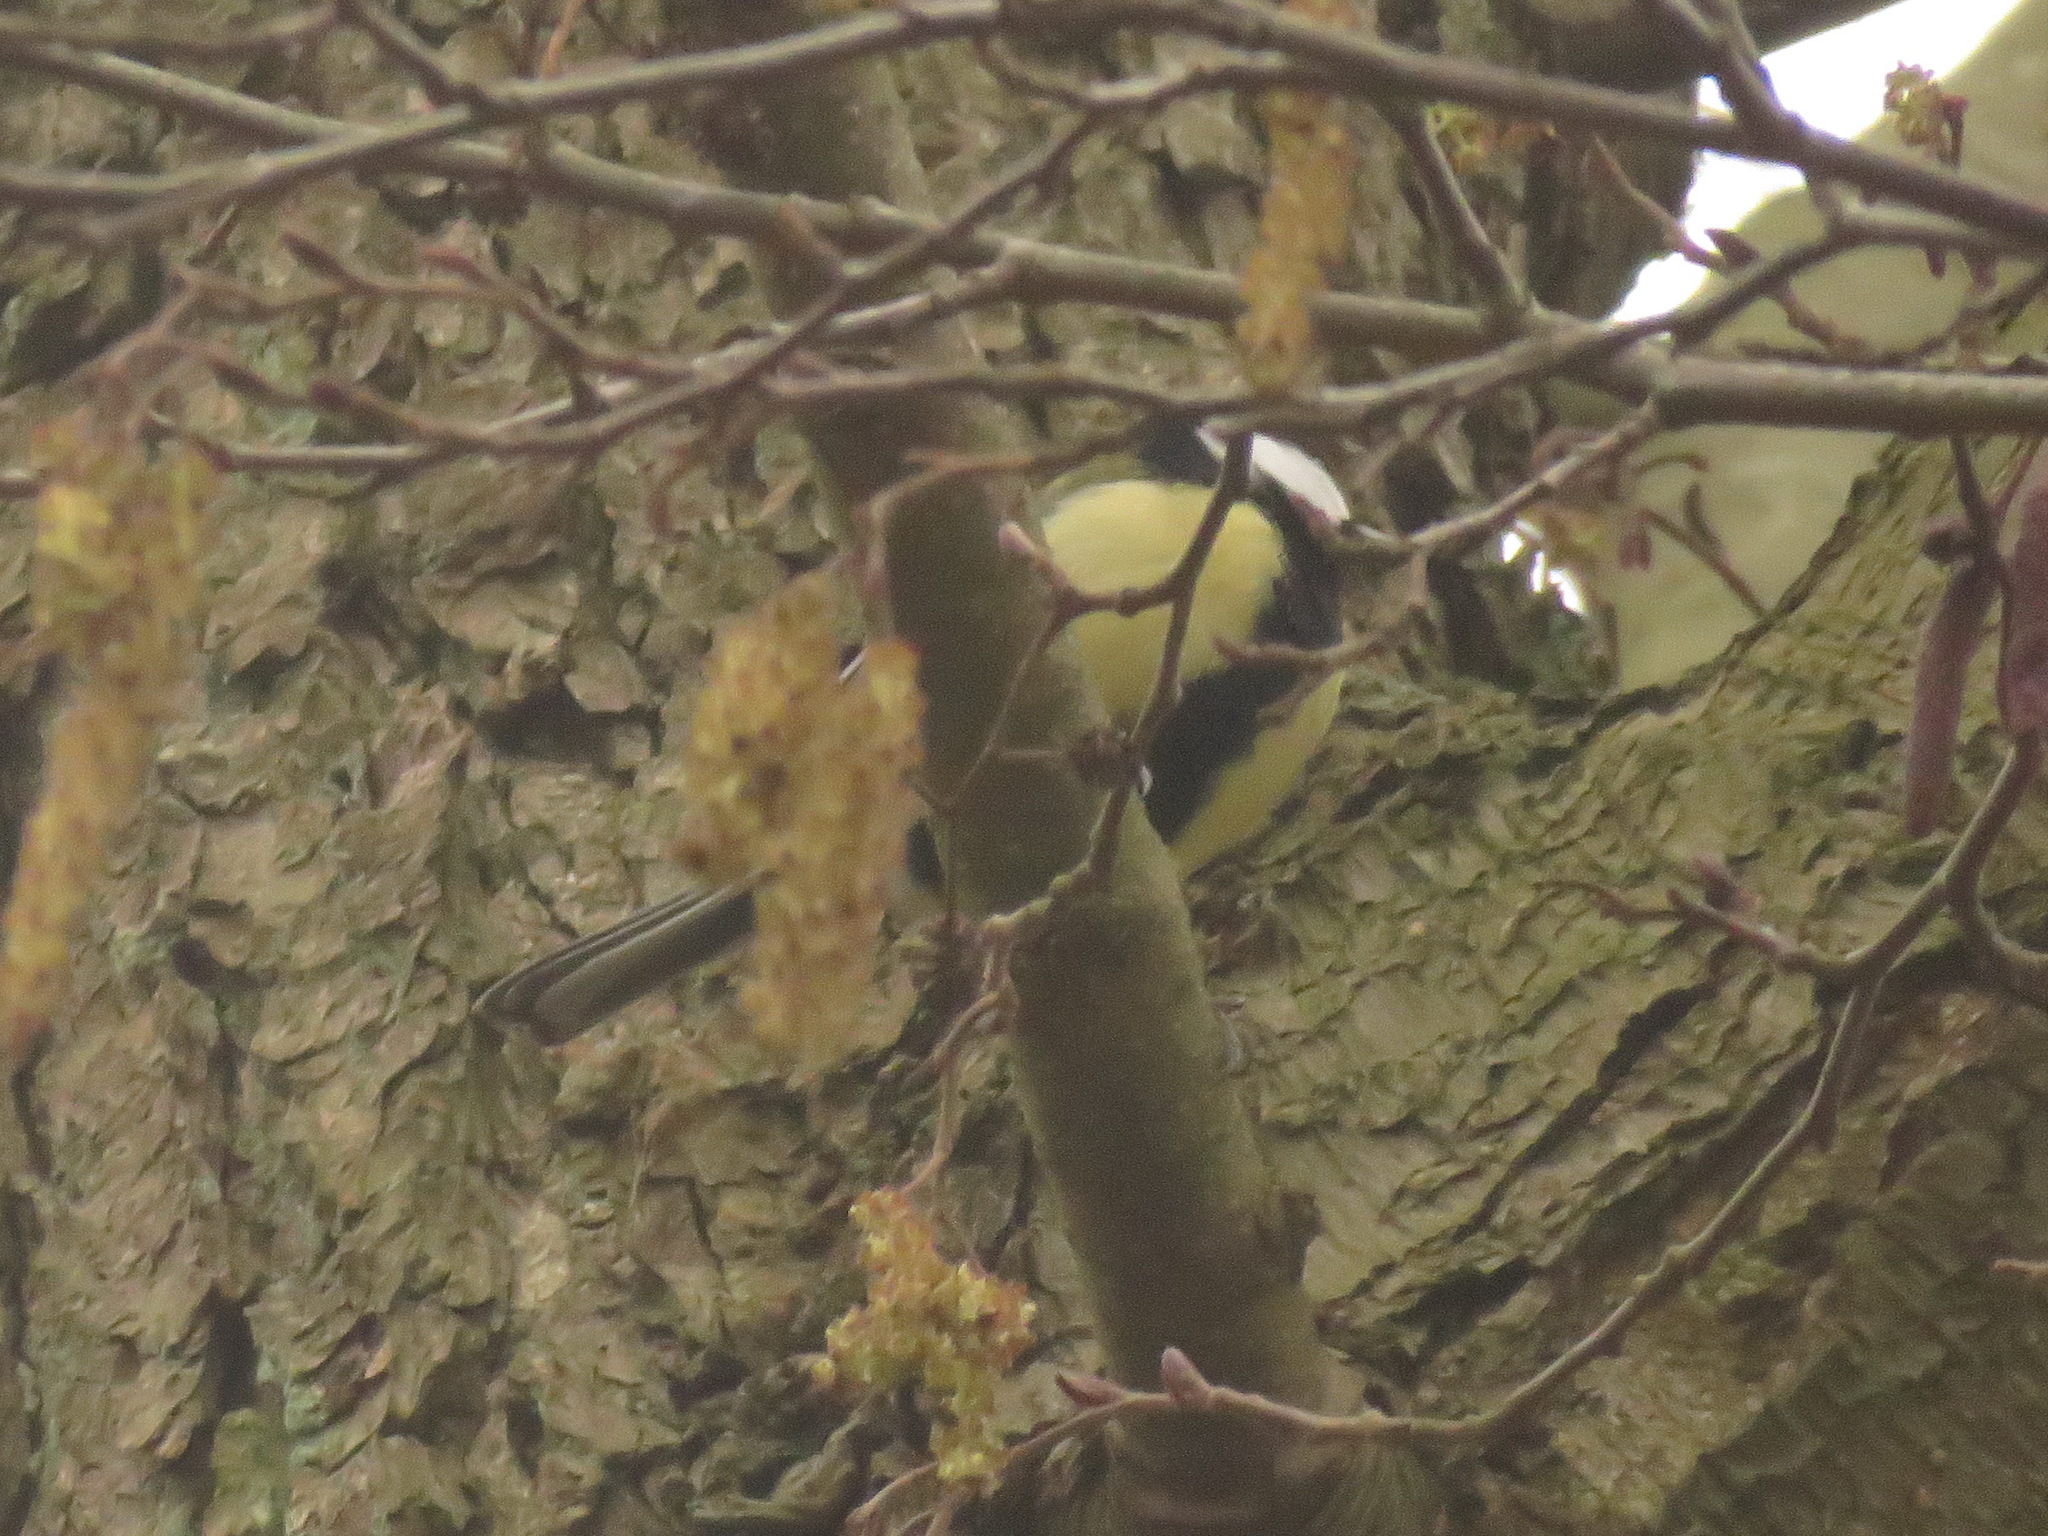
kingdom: Animalia
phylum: Chordata
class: Aves
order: Passeriformes
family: Paridae
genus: Parus
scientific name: Parus major
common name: Great tit
